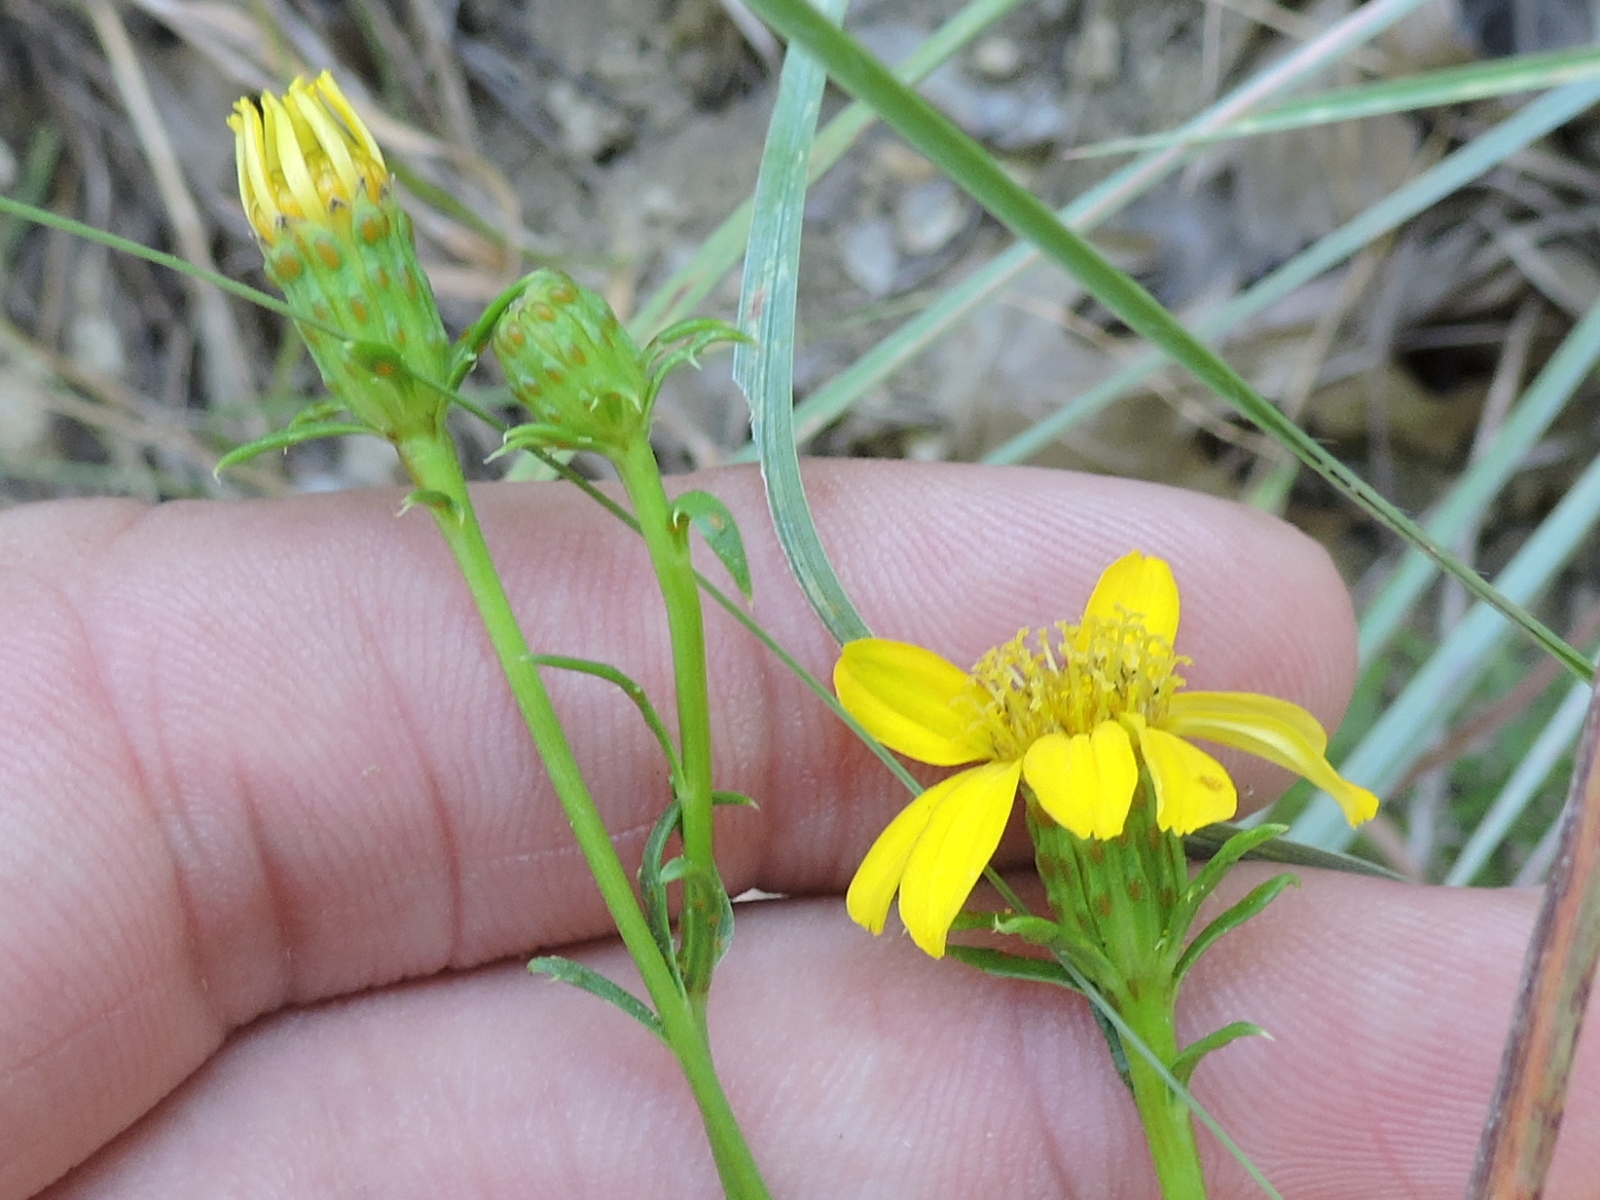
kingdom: Plantae
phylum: Tracheophyta
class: Magnoliopsida
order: Asterales
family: Asteraceae
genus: Dysodiopsis
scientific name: Dysodiopsis tagetoides
